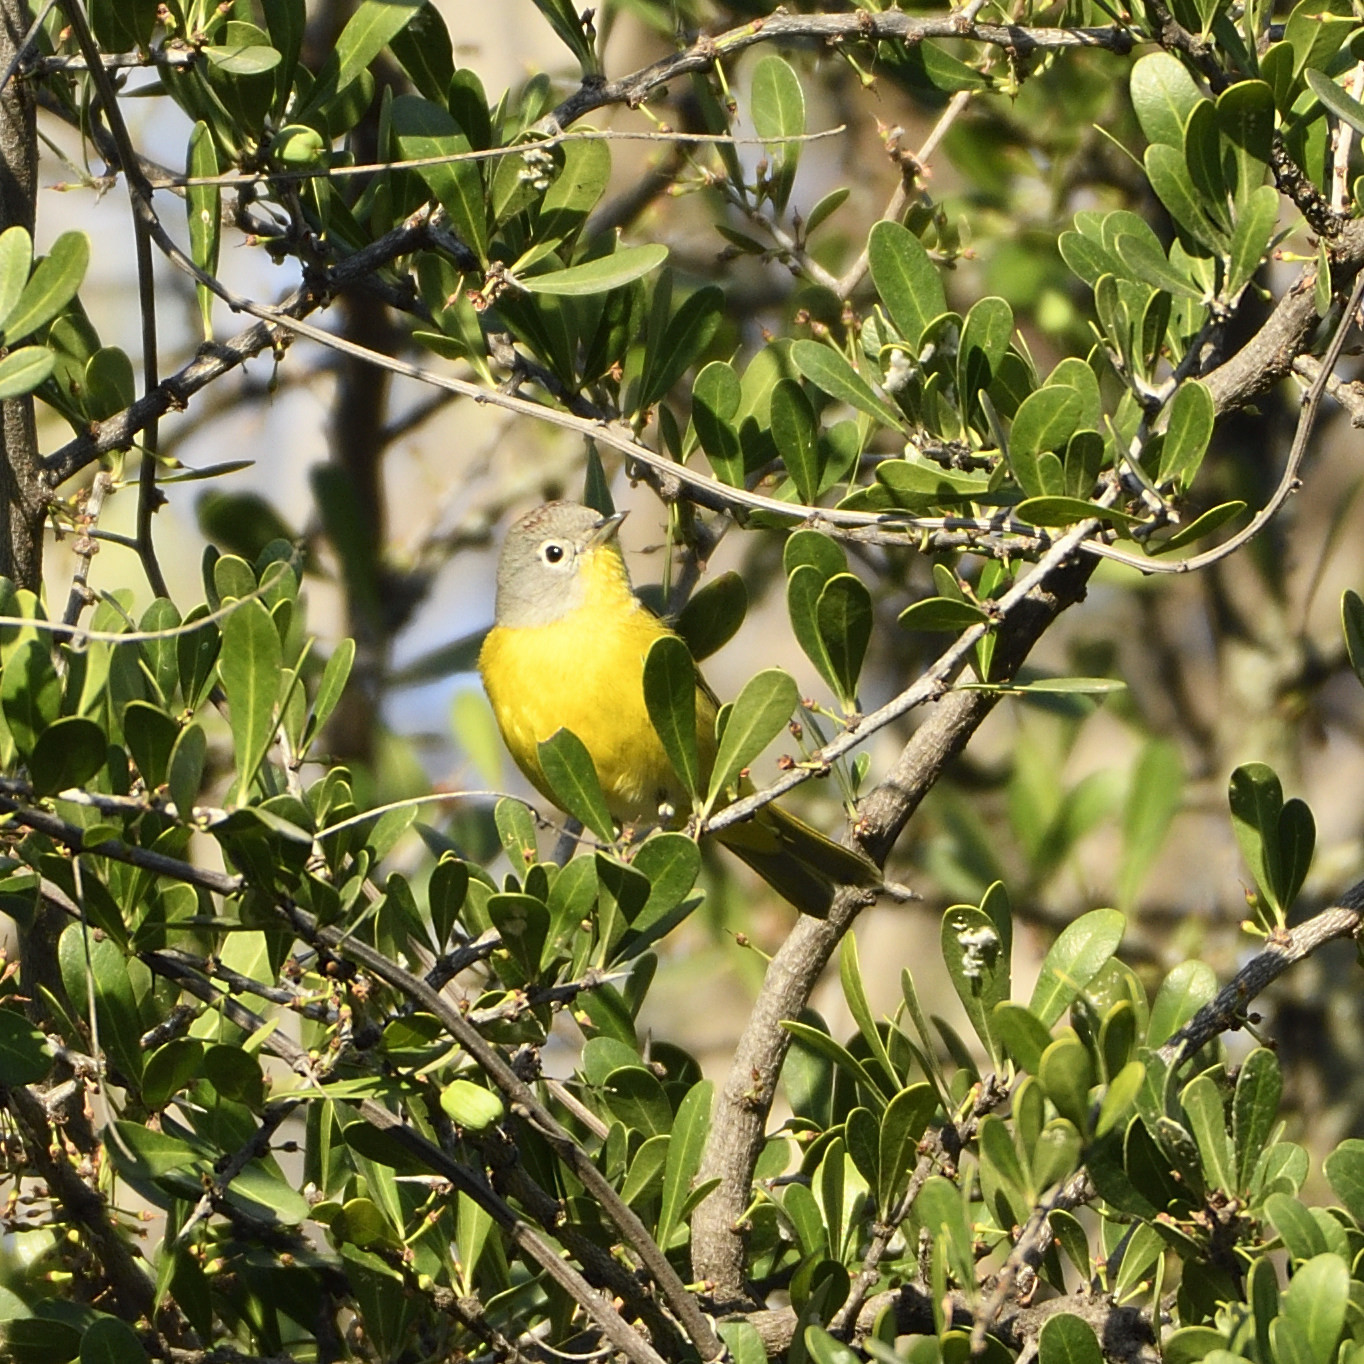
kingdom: Animalia
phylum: Chordata
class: Aves
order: Passeriformes
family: Parulidae
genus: Leiothlypis
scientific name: Leiothlypis ruficapilla
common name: Nashville warbler
